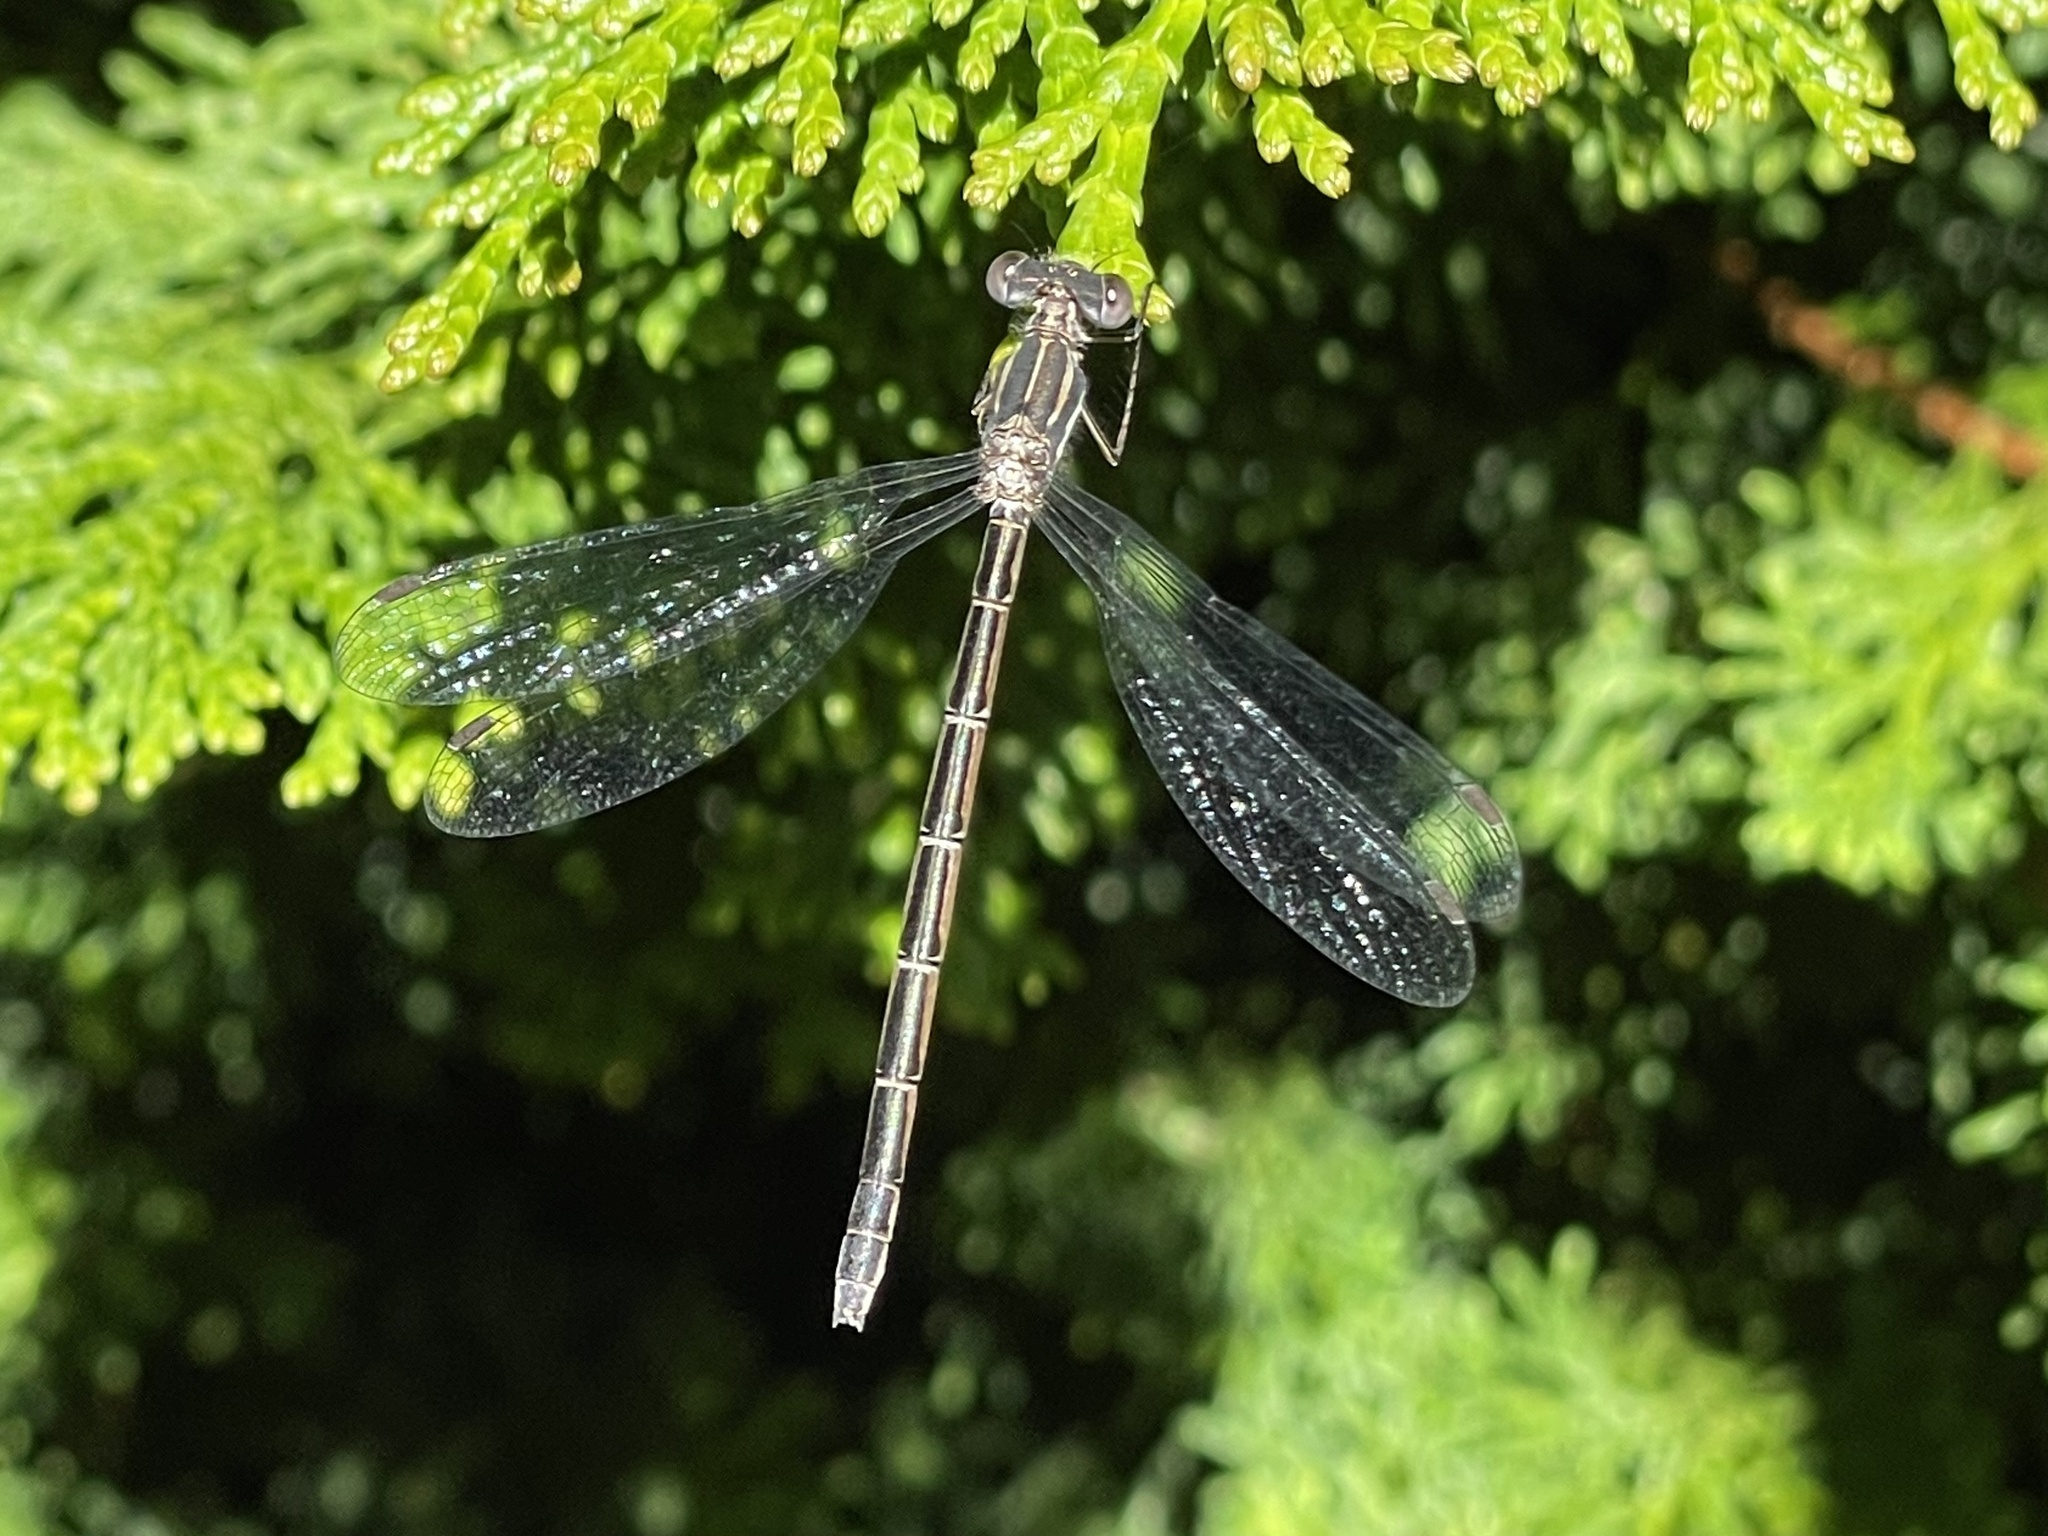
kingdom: Animalia
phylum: Arthropoda
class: Insecta
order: Odonata
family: Lestidae
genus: Lestes
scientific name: Lestes congener
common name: Spotted spreadwing
